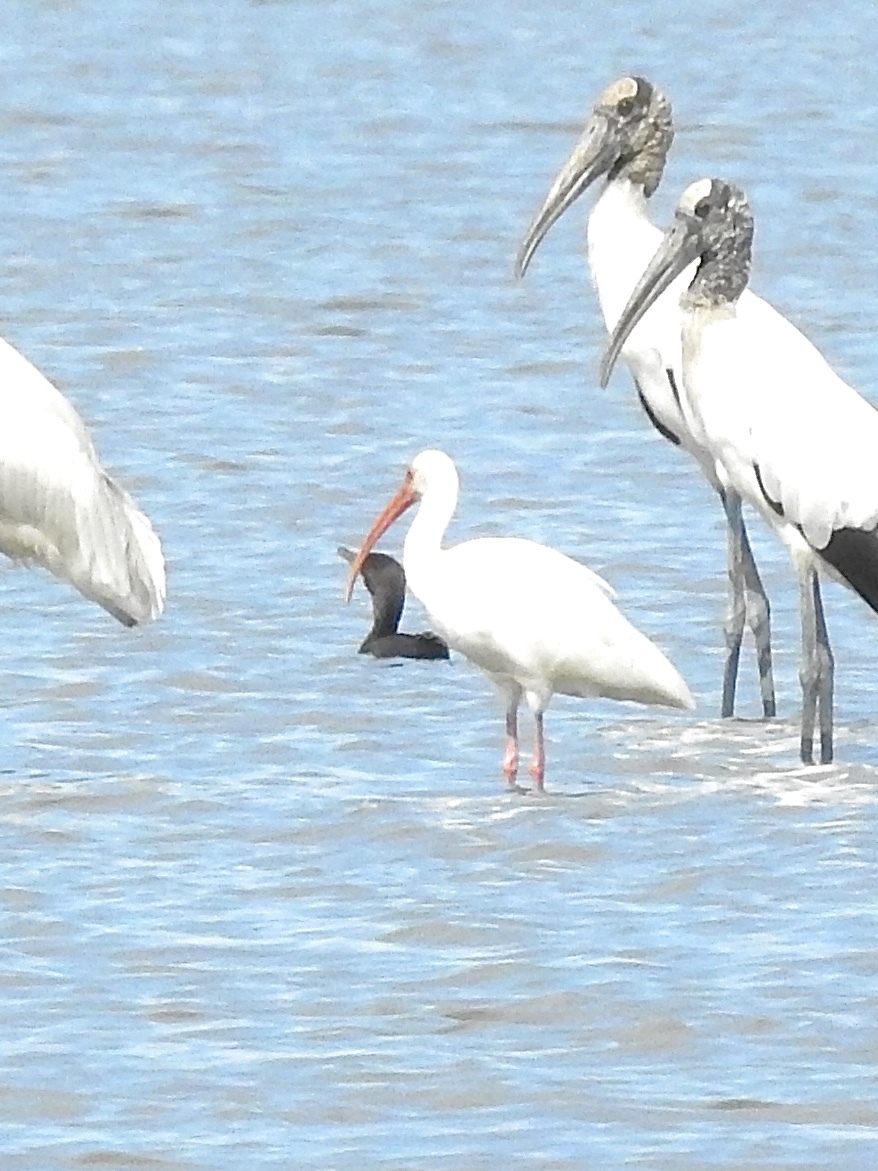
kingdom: Animalia
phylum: Chordata
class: Aves
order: Pelecaniformes
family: Threskiornithidae
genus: Eudocimus
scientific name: Eudocimus albus
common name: White ibis
